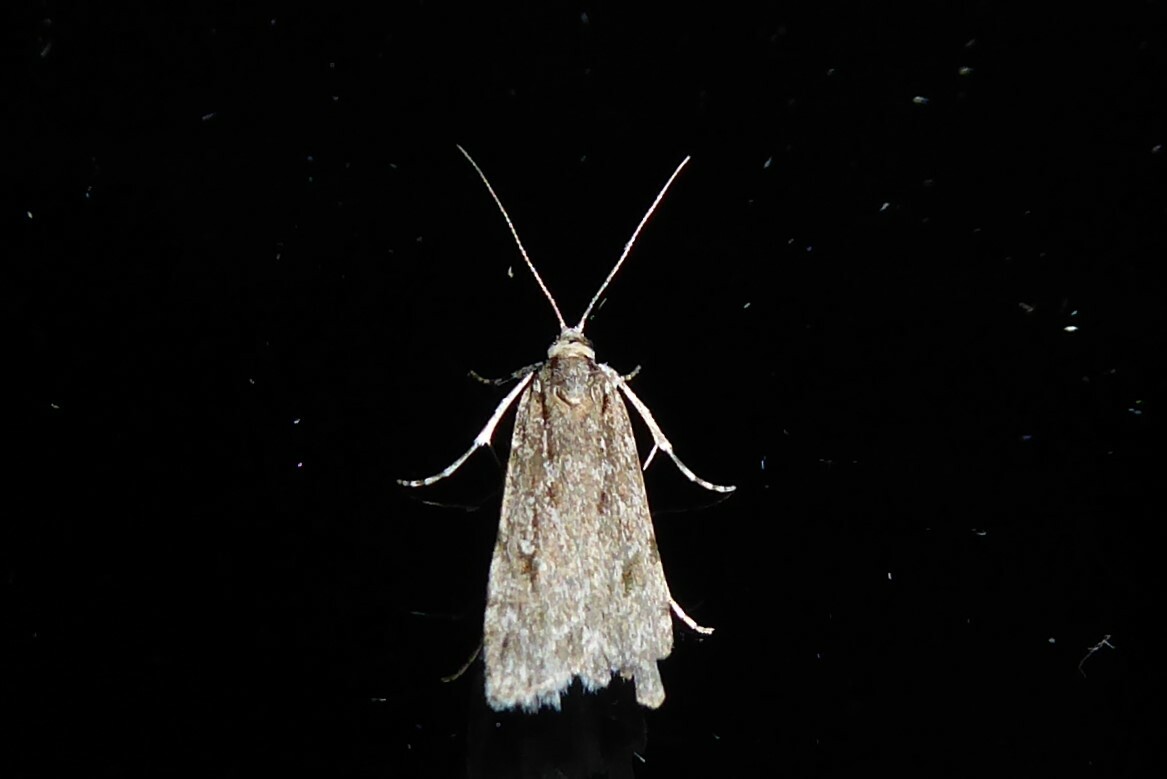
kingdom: Animalia
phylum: Arthropoda
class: Insecta
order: Lepidoptera
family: Crambidae
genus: Scoparia
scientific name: Scoparia chalicodes
